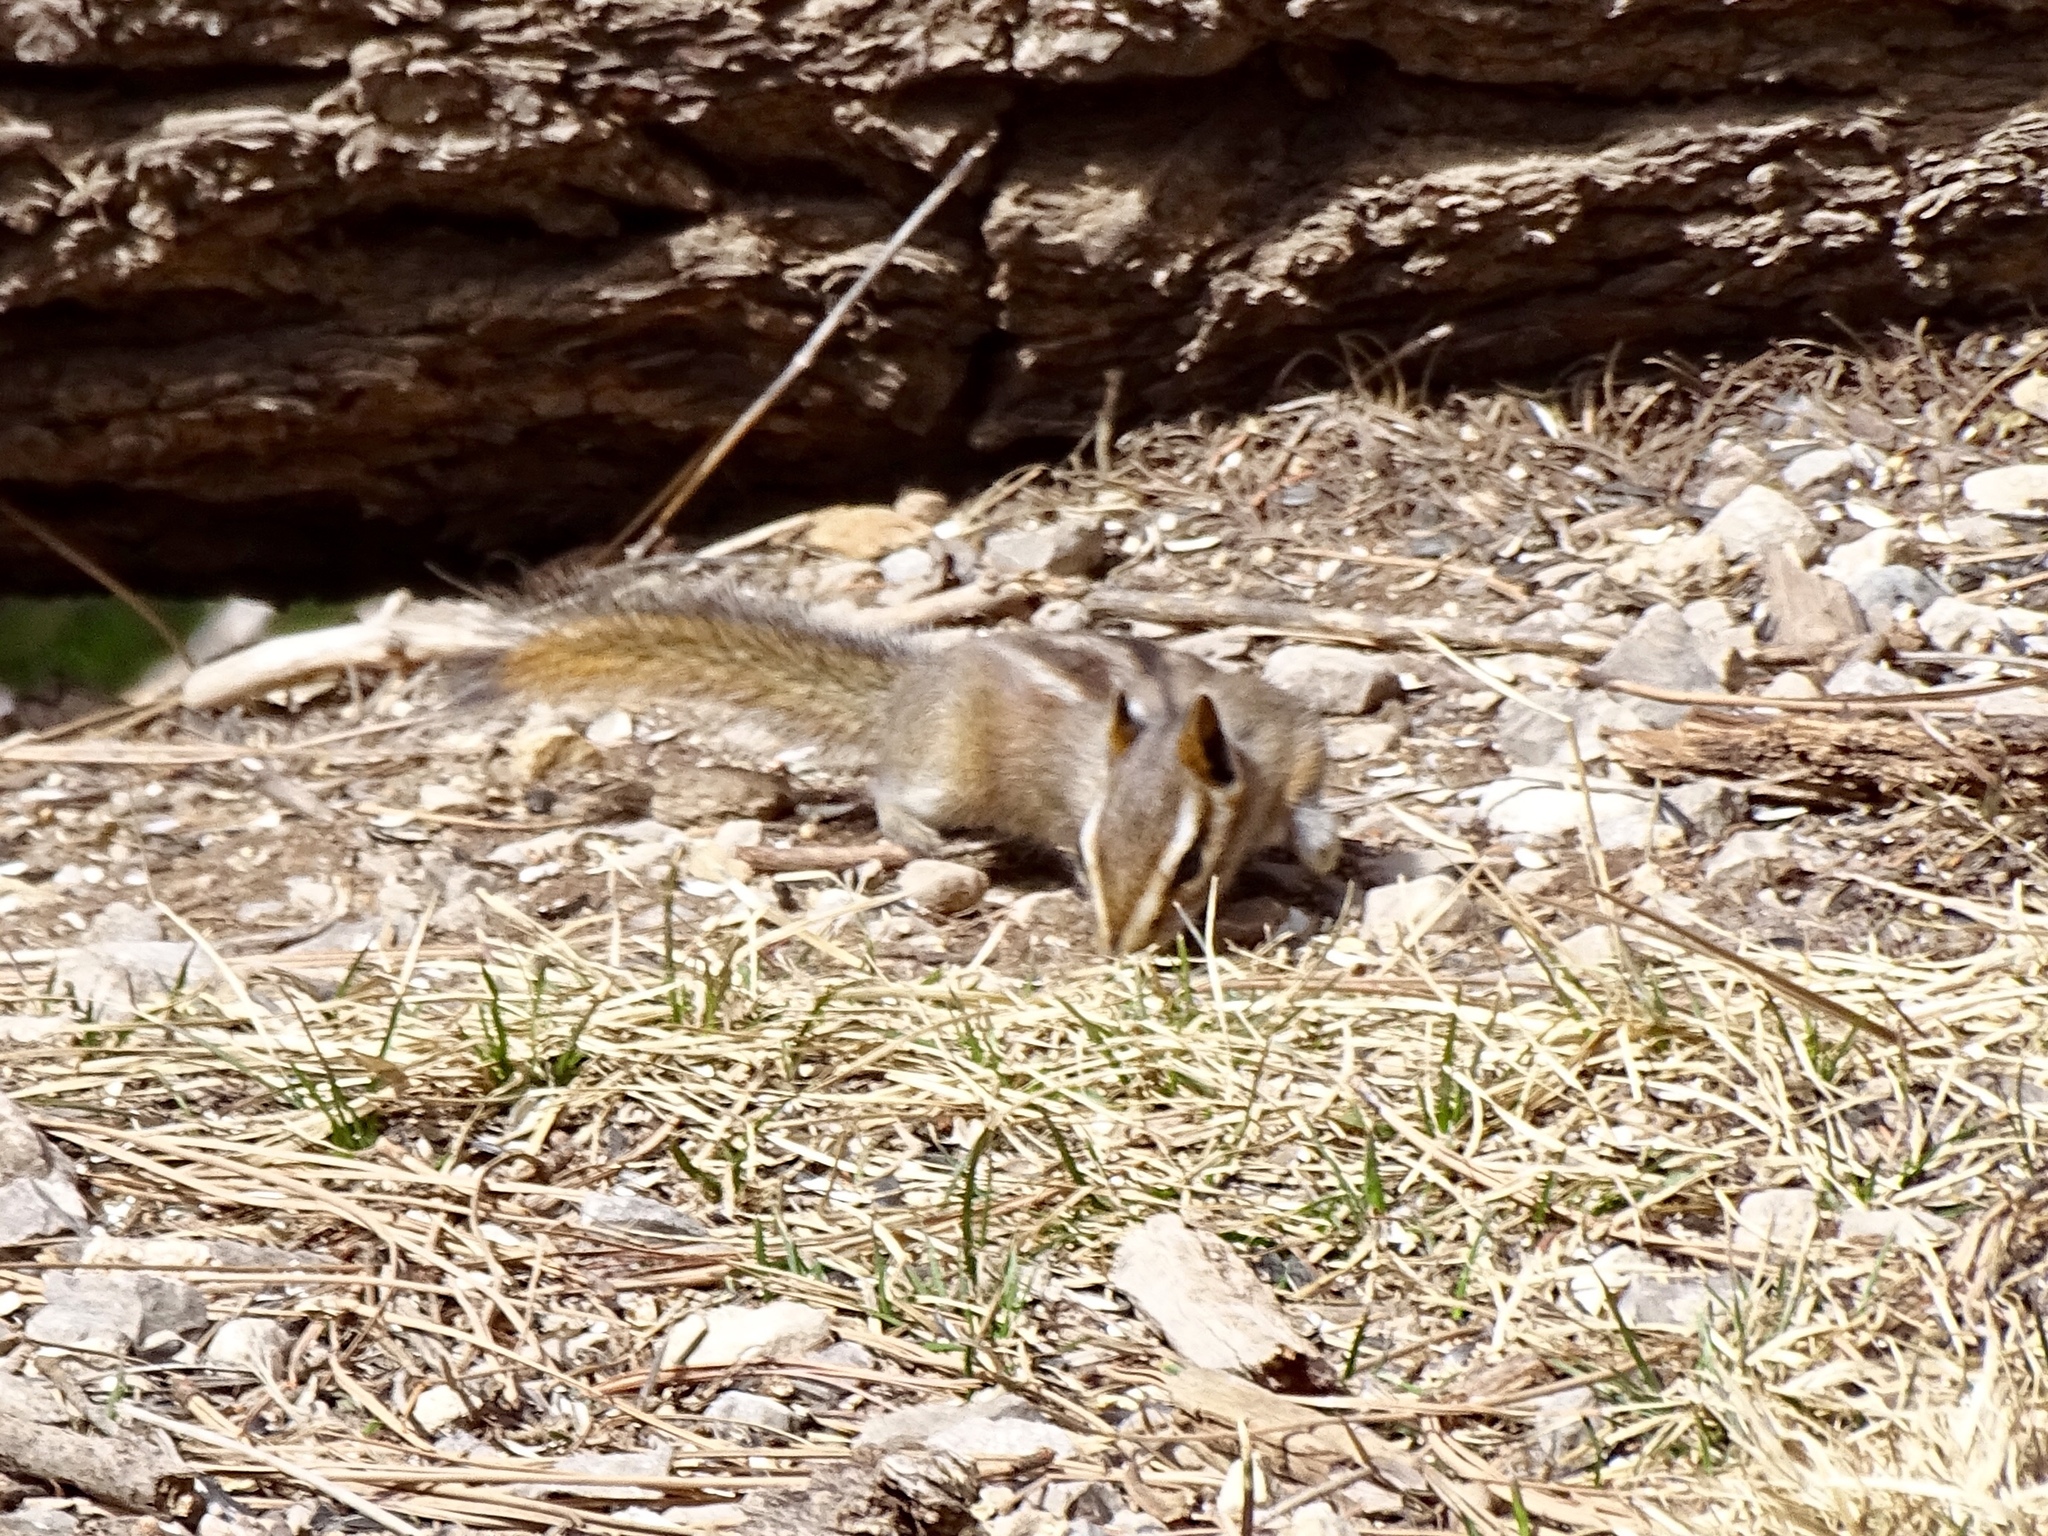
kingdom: Animalia
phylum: Chordata
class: Mammalia
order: Rodentia
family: Sciuridae
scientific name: Sciuridae
